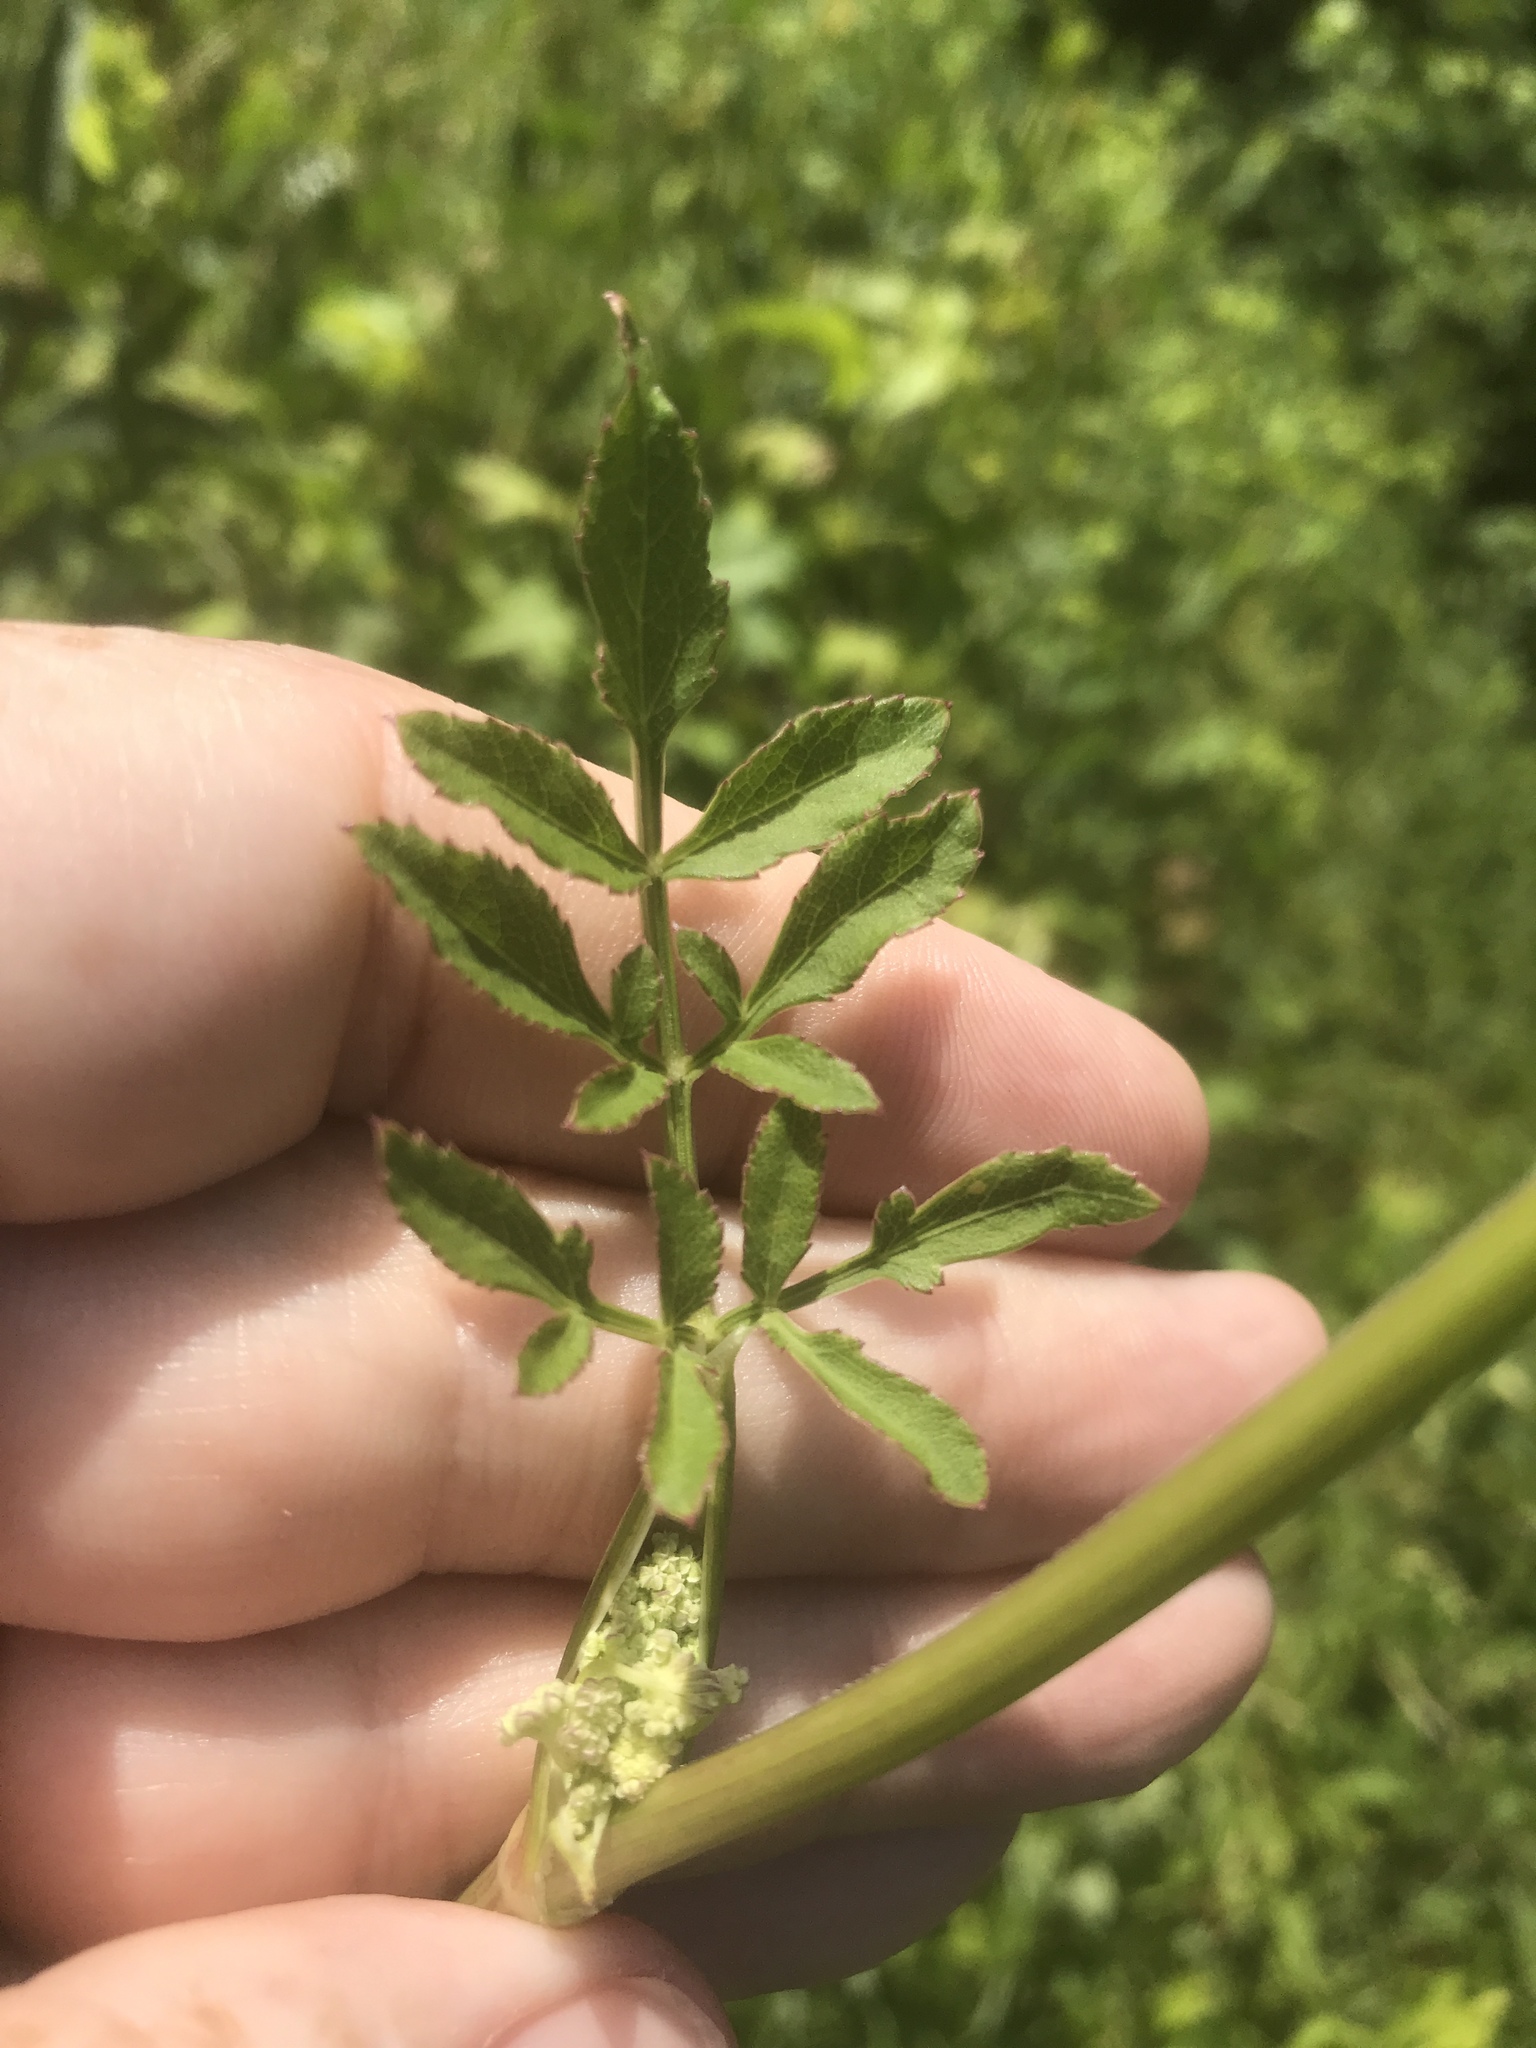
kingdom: Plantae
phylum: Tracheophyta
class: Magnoliopsida
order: Apiales
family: Apiaceae
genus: Angelica
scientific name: Angelica venenosa
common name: Hairy angelica
